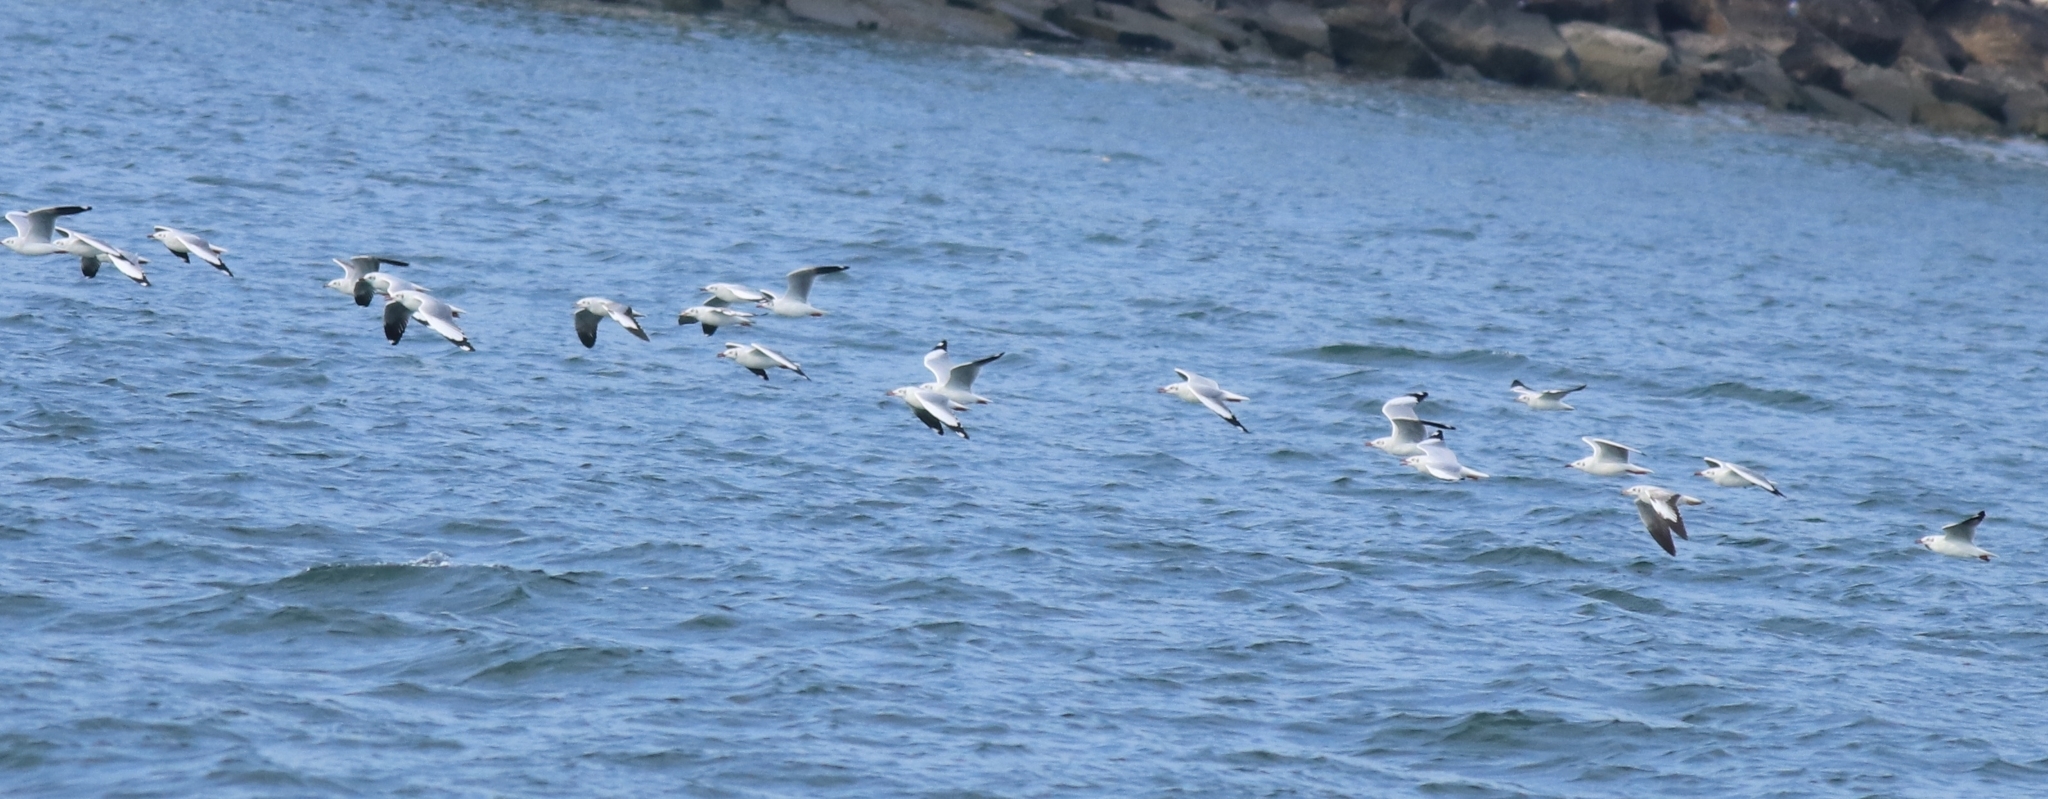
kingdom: Animalia
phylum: Chordata
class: Aves
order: Charadriiformes
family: Laridae
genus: Chroicocephalus
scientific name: Chroicocephalus brunnicephalus
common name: Brown-headed gull
